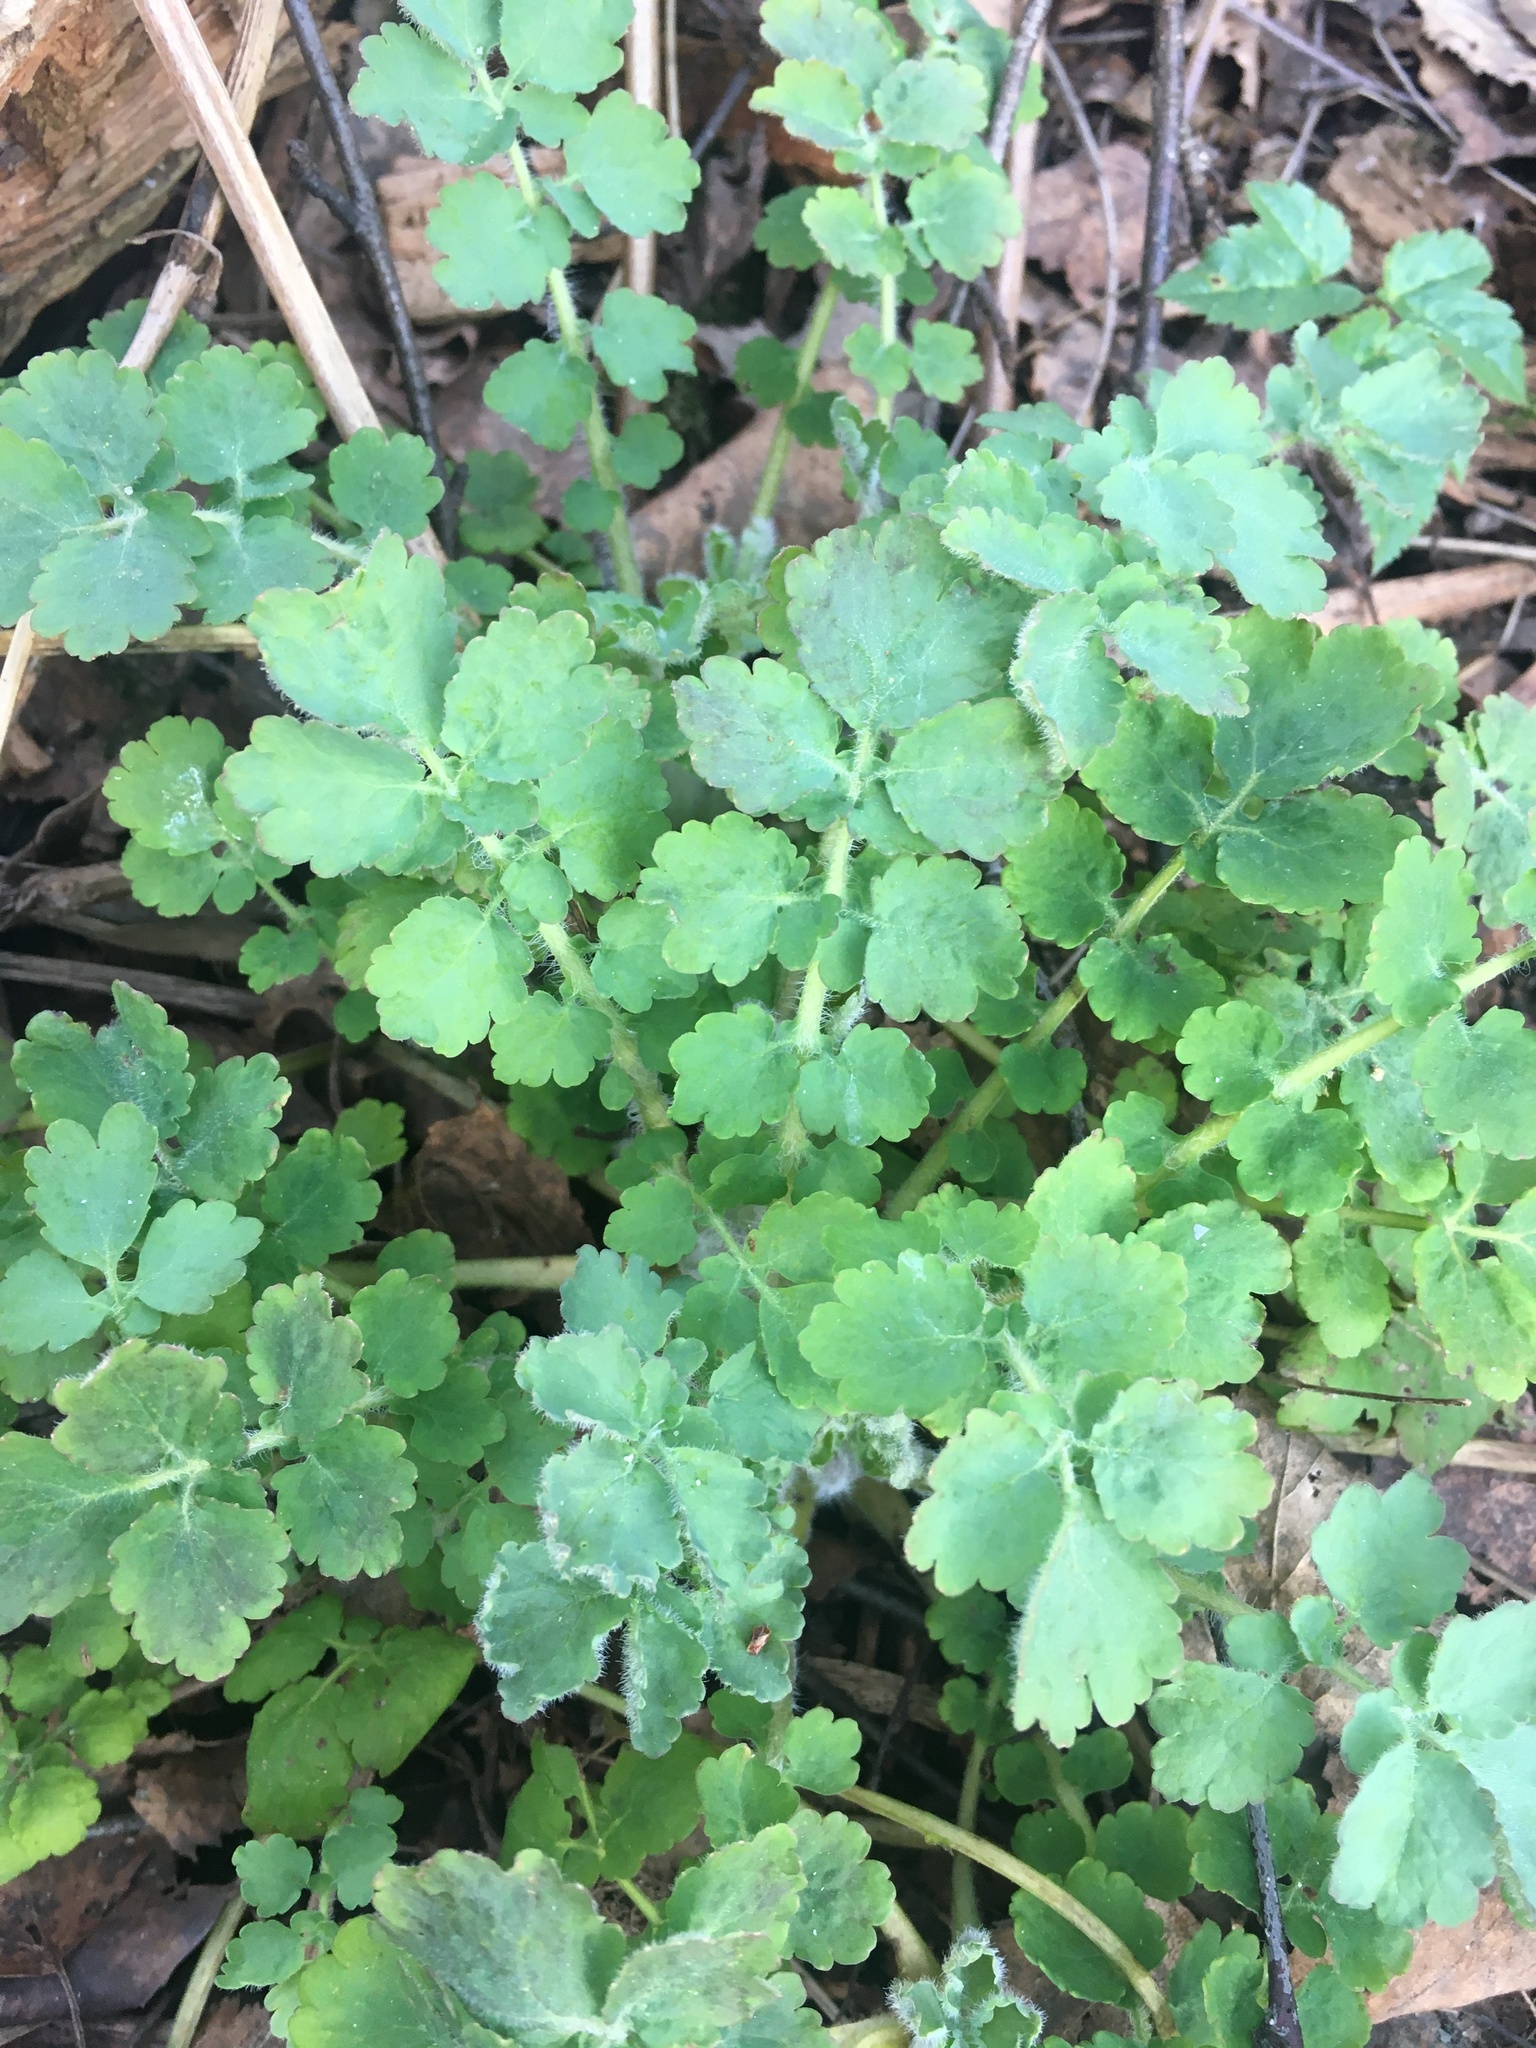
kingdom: Plantae
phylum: Tracheophyta
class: Magnoliopsida
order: Ranunculales
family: Papaveraceae
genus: Chelidonium
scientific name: Chelidonium majus
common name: Greater celandine
